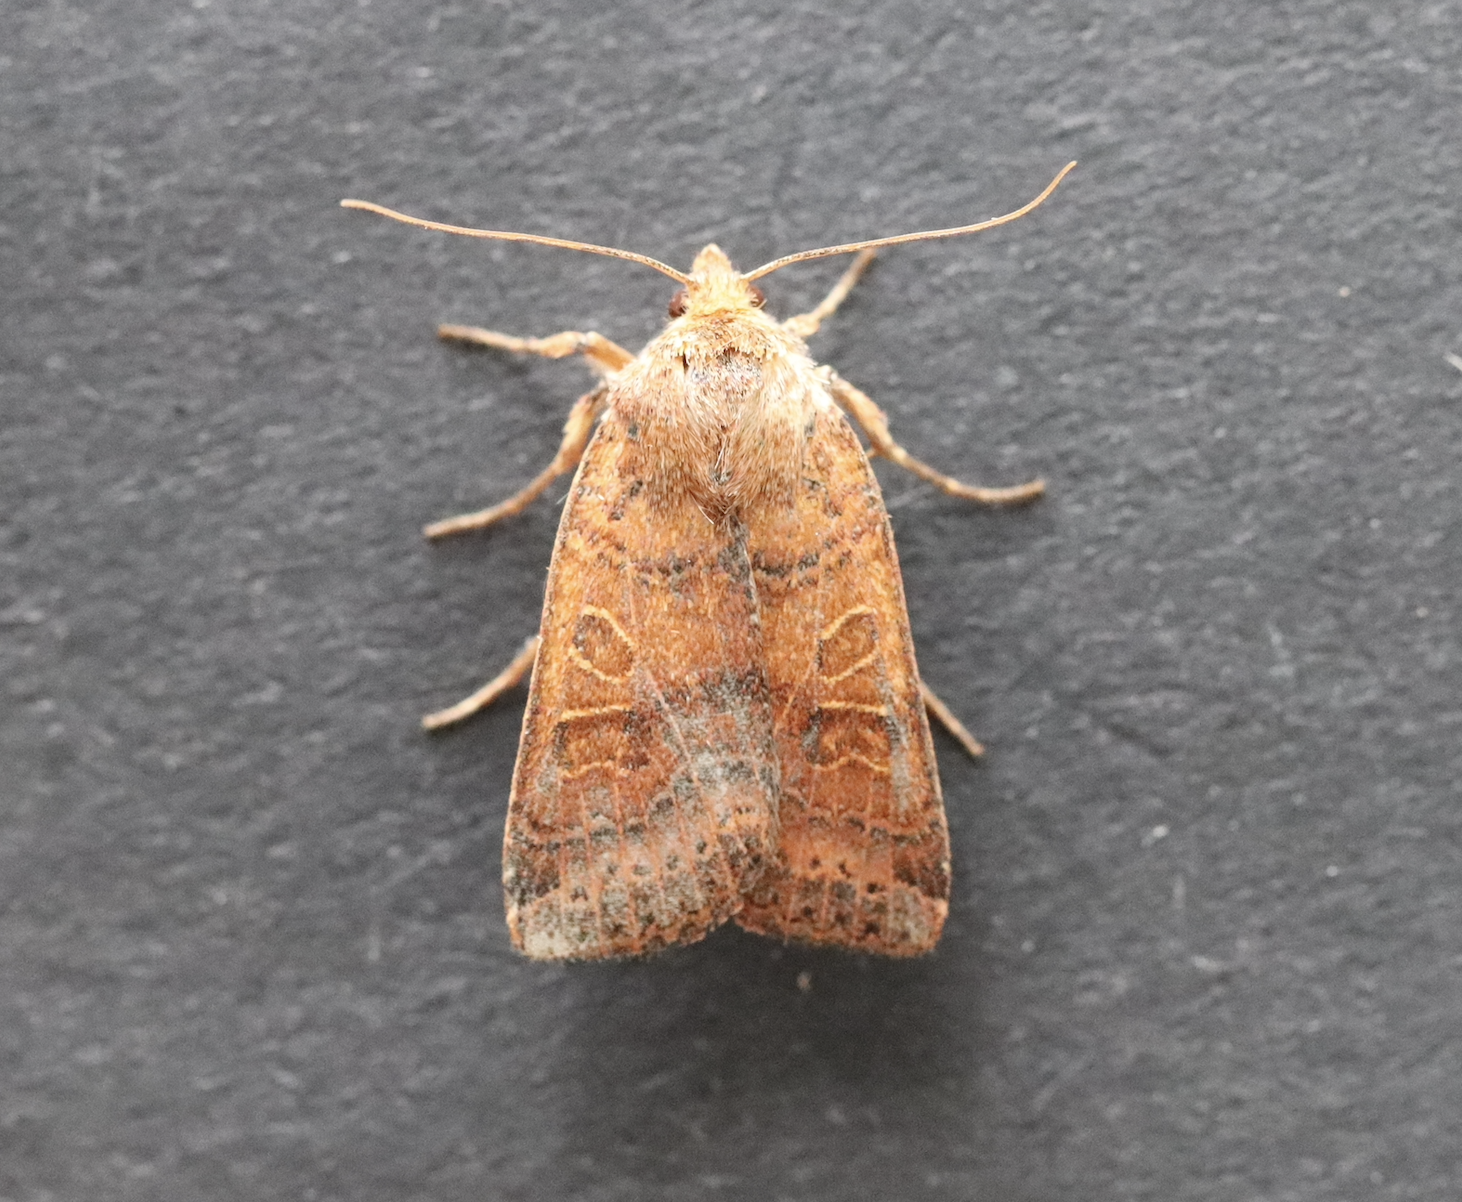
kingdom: Animalia
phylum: Arthropoda
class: Insecta
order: Lepidoptera
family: Noctuidae
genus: Agrochola
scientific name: Agrochola nitida
